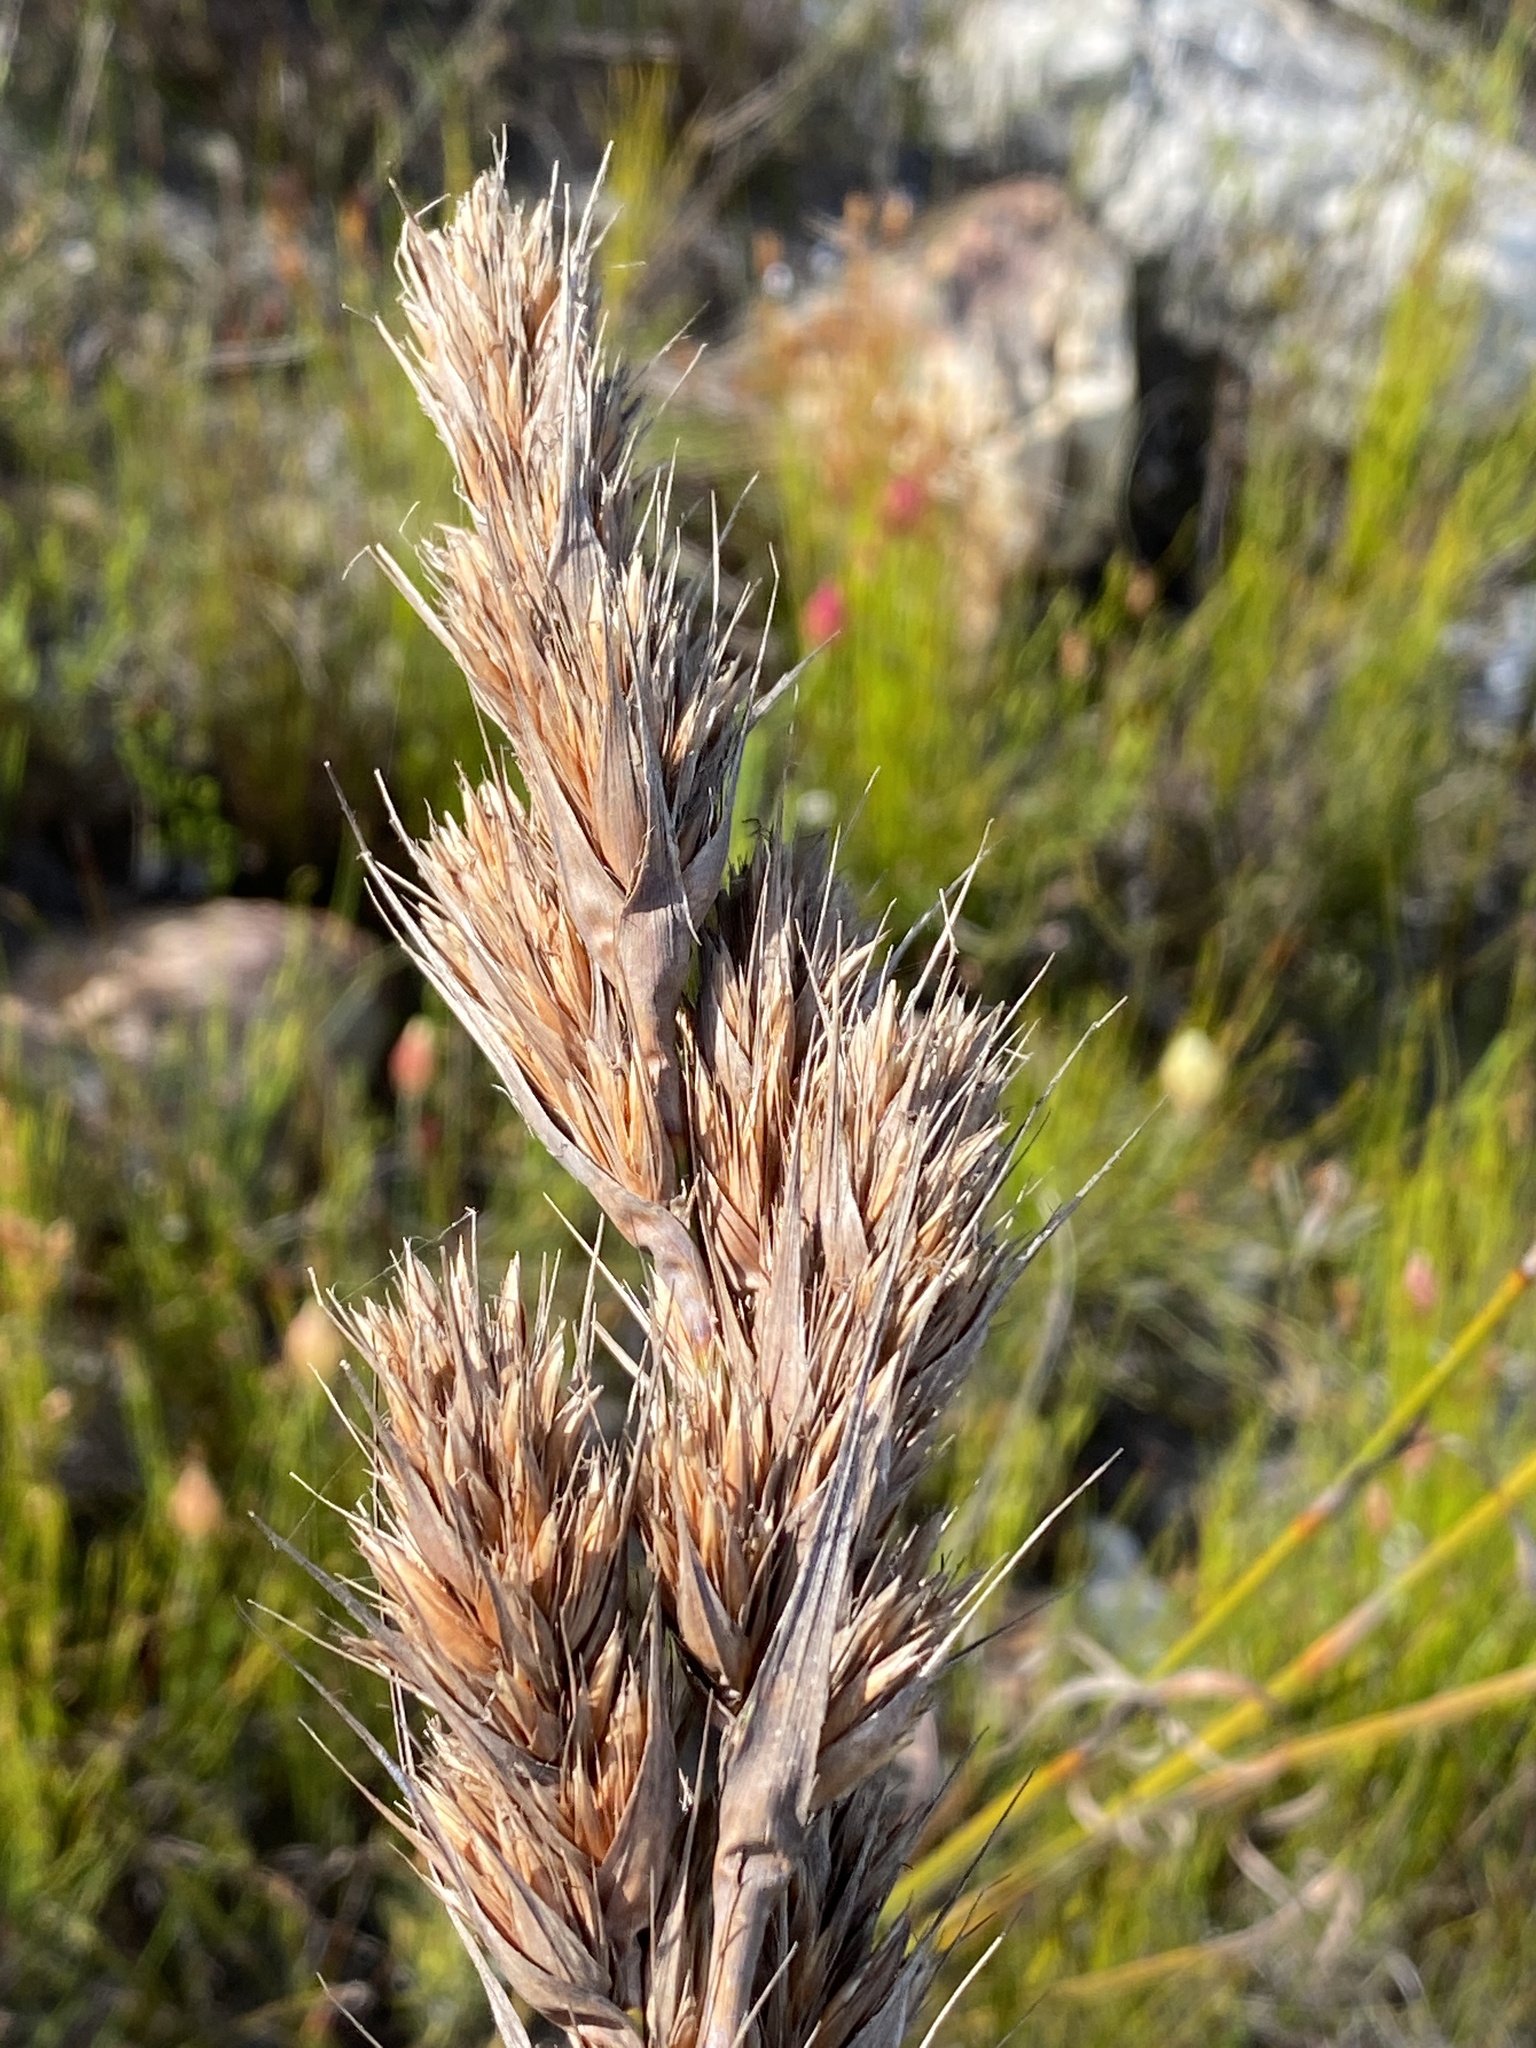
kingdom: Plantae
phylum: Tracheophyta
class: Liliopsida
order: Poales
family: Cyperaceae
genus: Tetraria
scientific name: Tetraria bromoides
